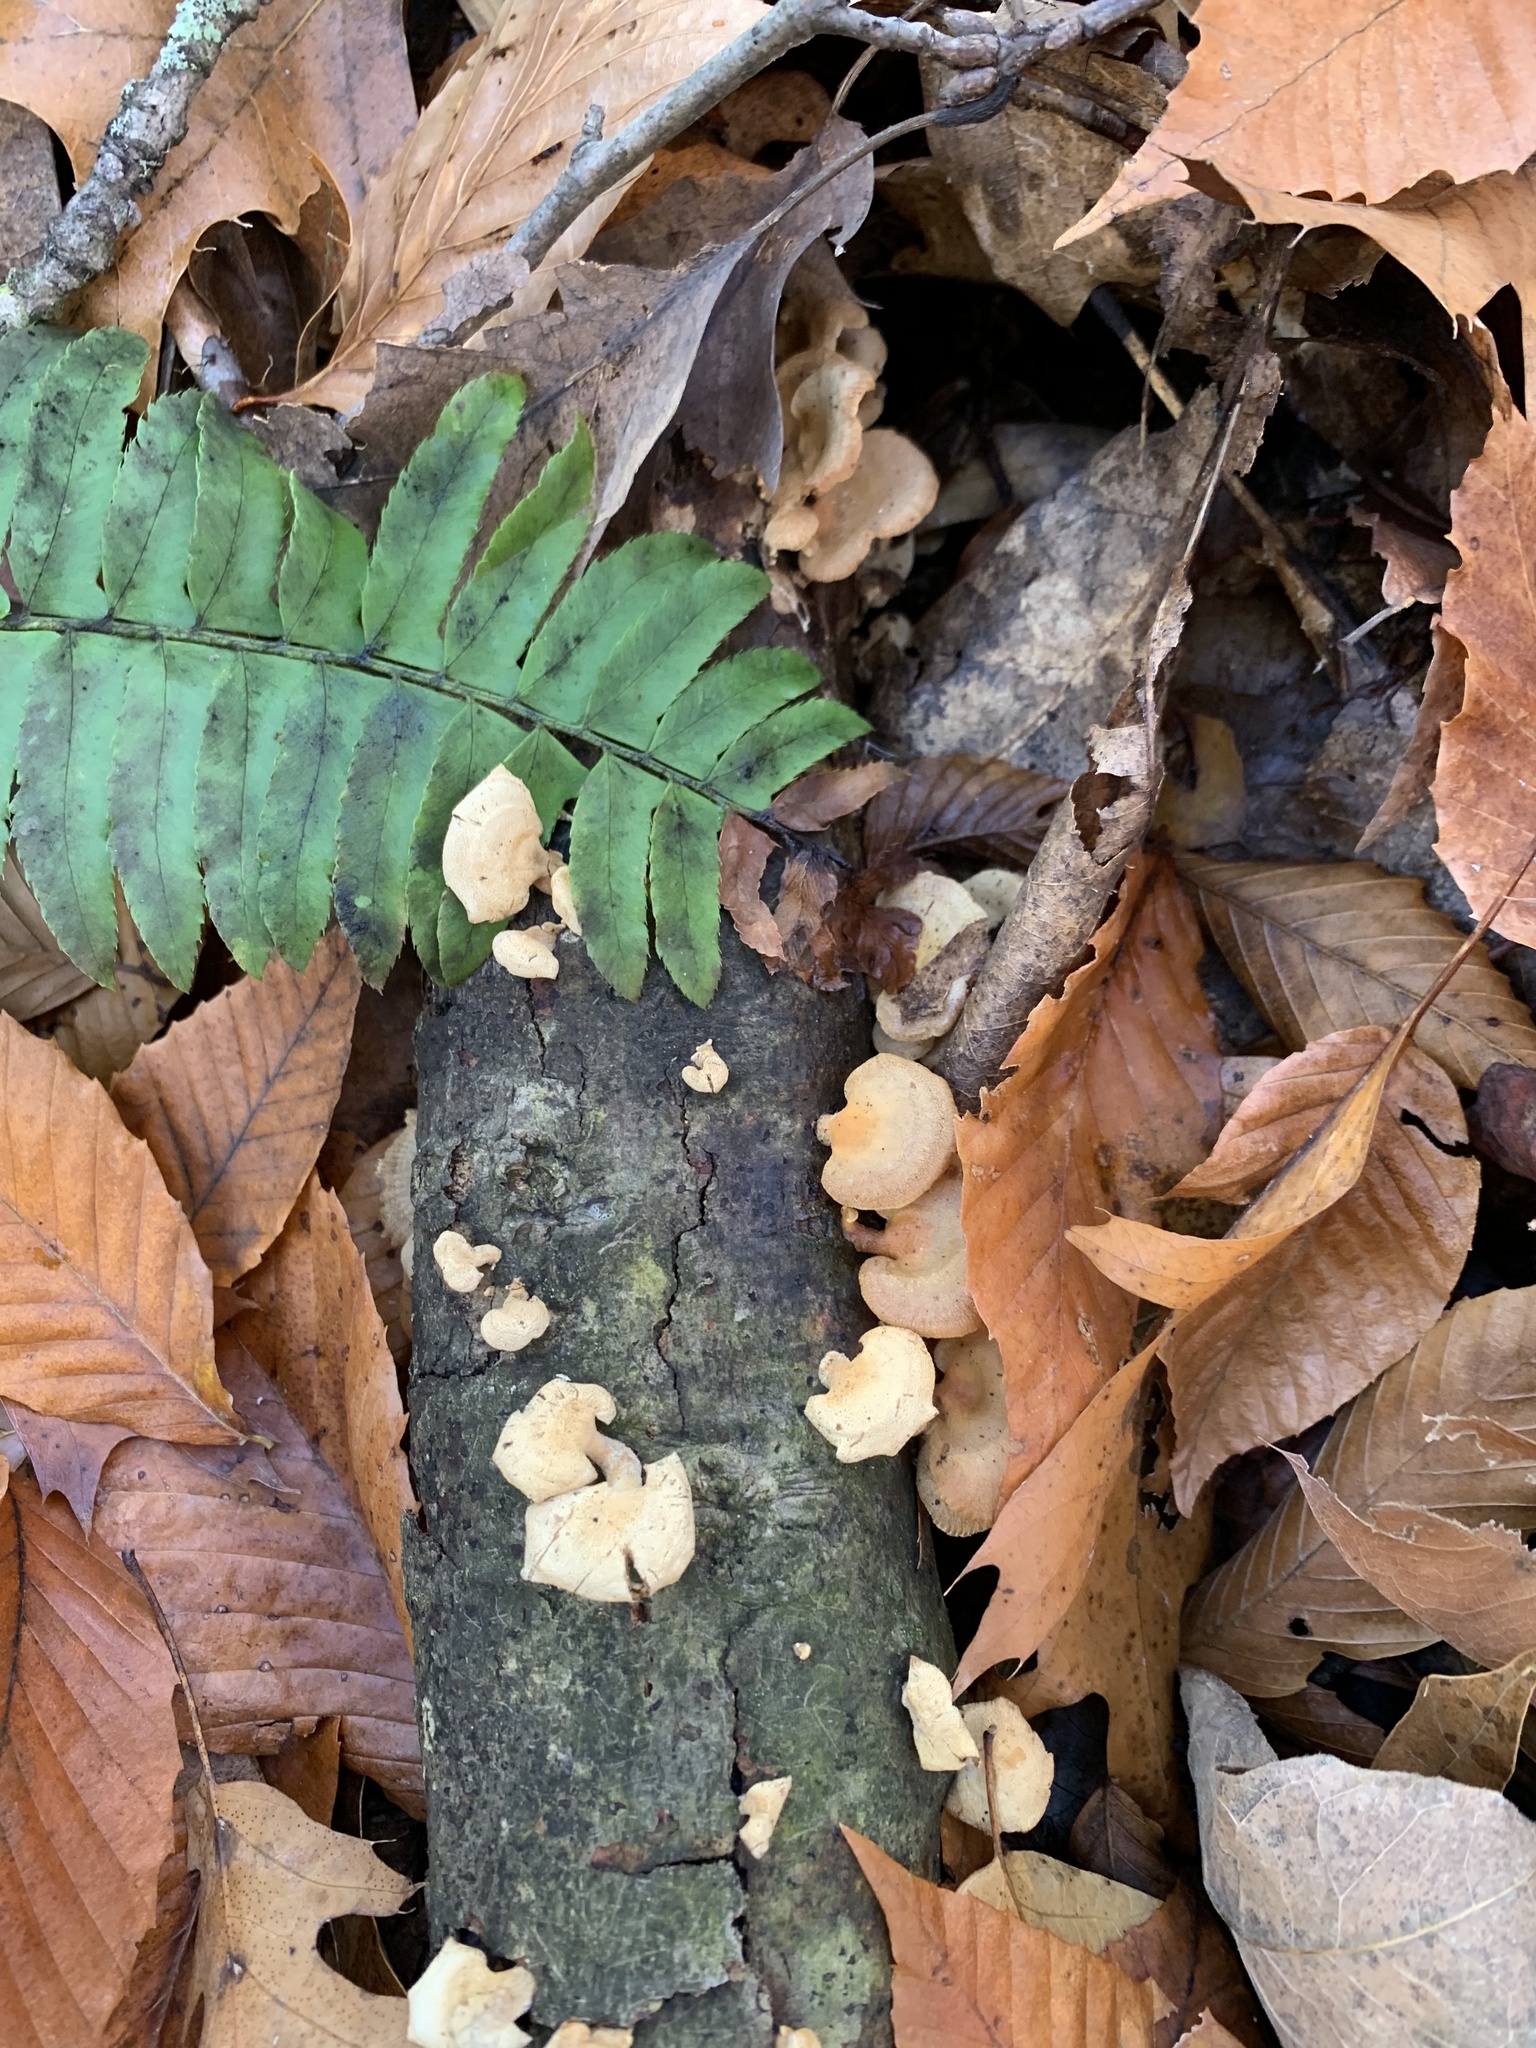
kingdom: Fungi
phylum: Basidiomycota
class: Agaricomycetes
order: Agaricales
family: Mycenaceae
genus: Panellus
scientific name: Panellus stipticus
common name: Bitter oysterling
